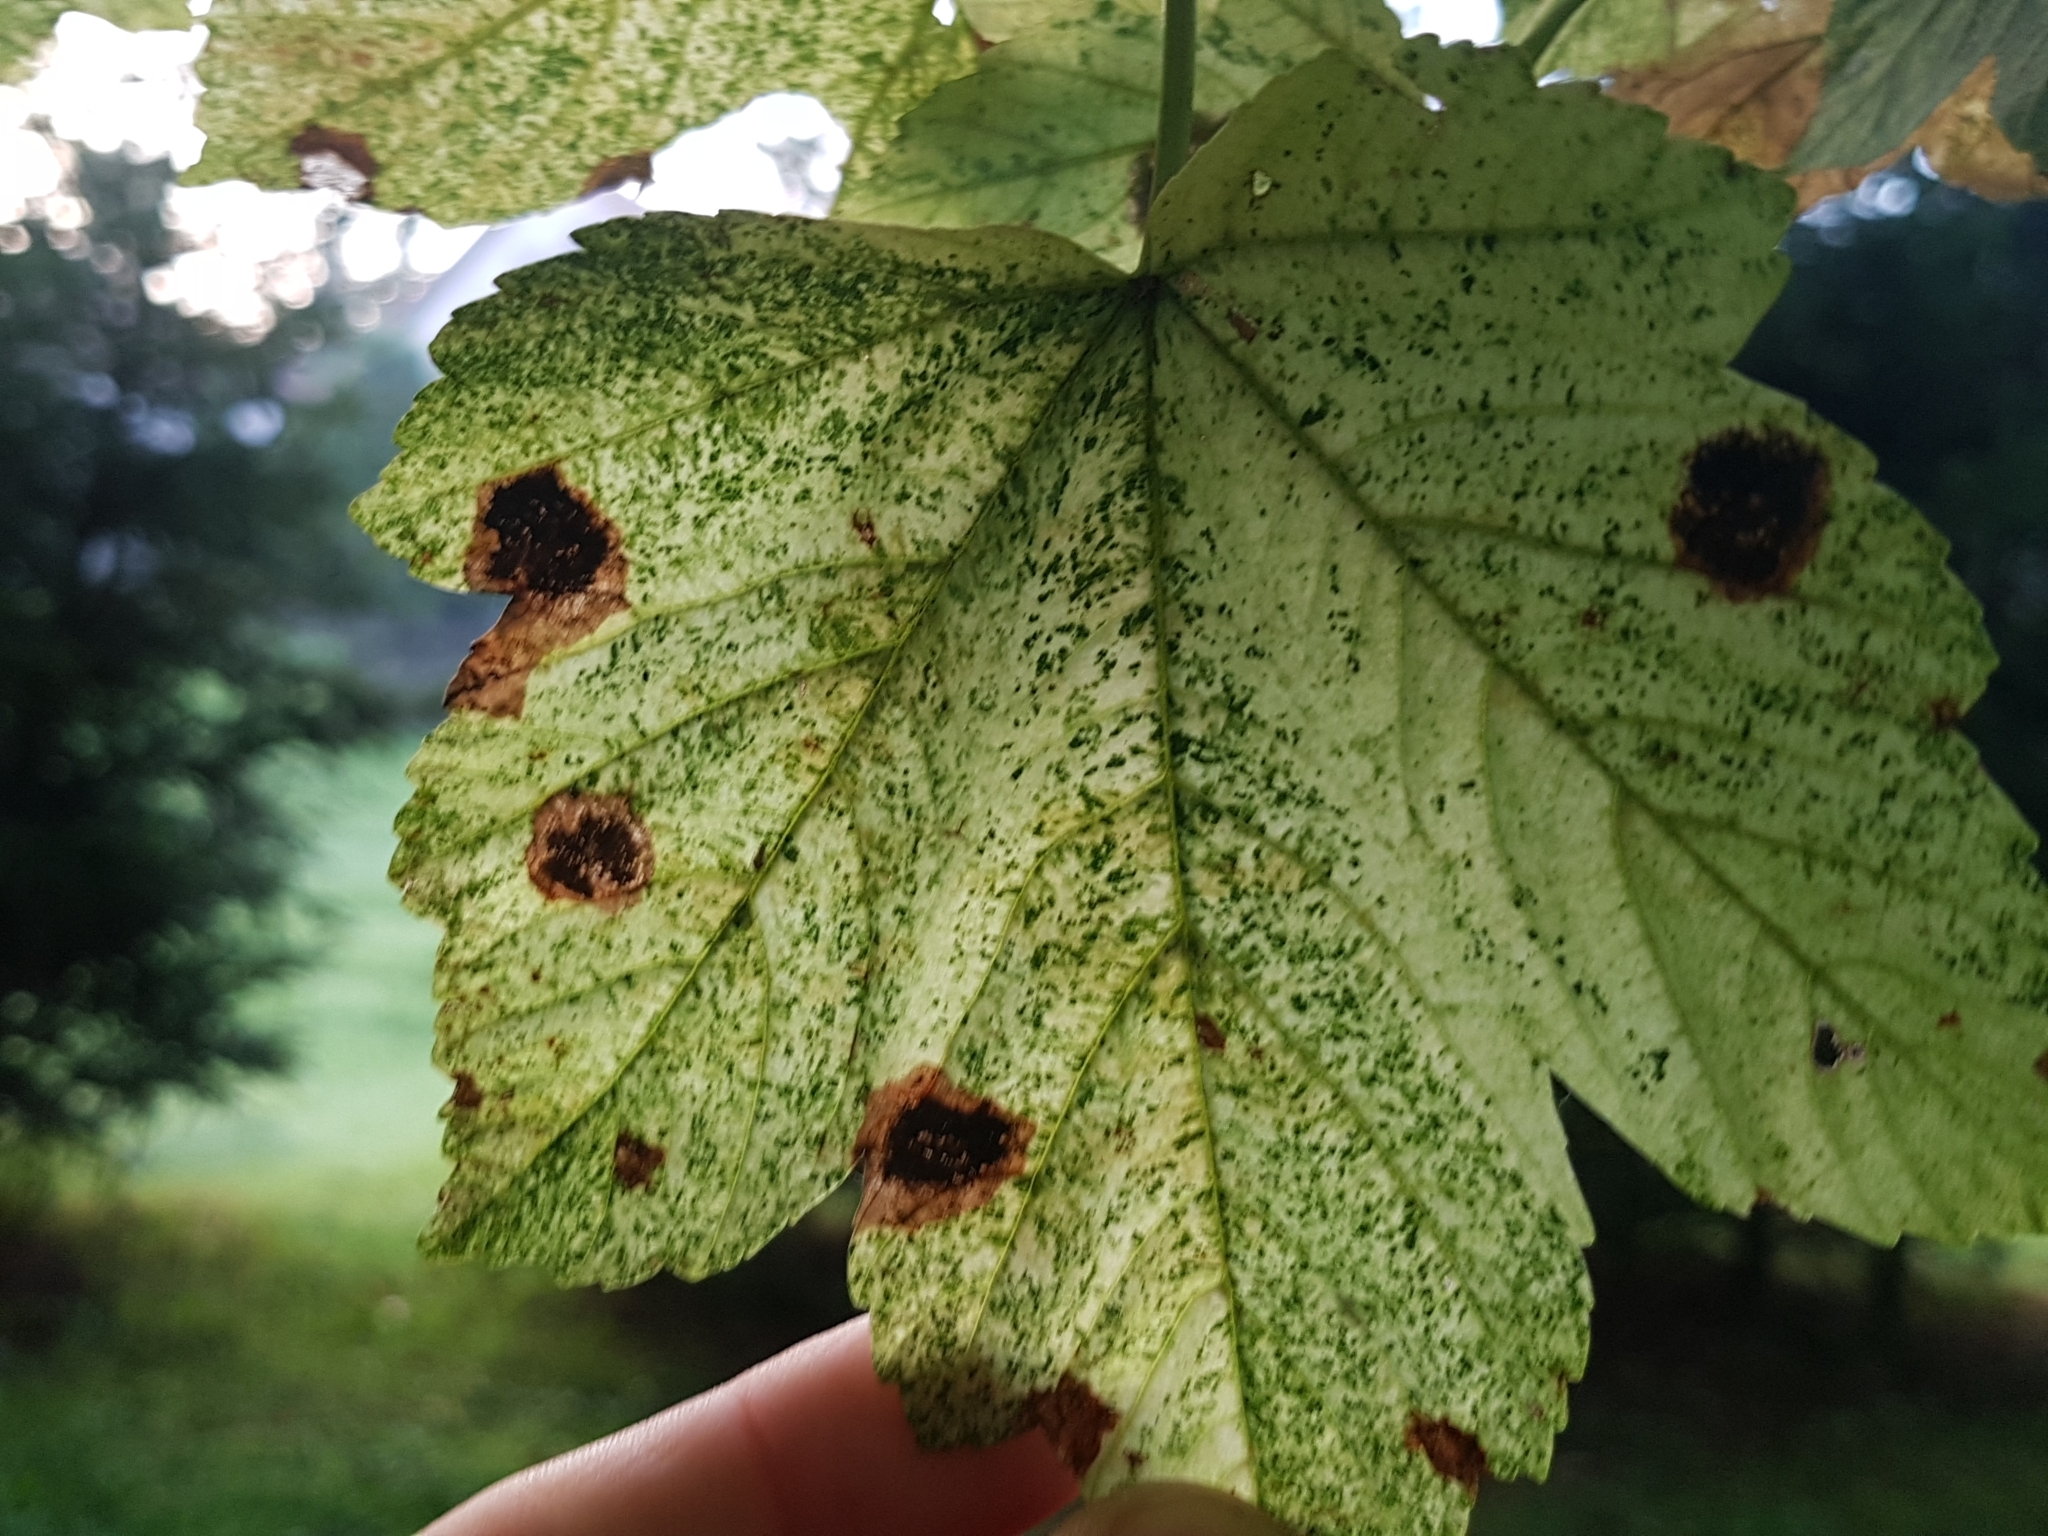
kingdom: Fungi
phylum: Ascomycota
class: Leotiomycetes
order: Rhytismatales
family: Rhytismataceae
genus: Rhytisma
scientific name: Rhytisma acerinum
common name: European tar spot
